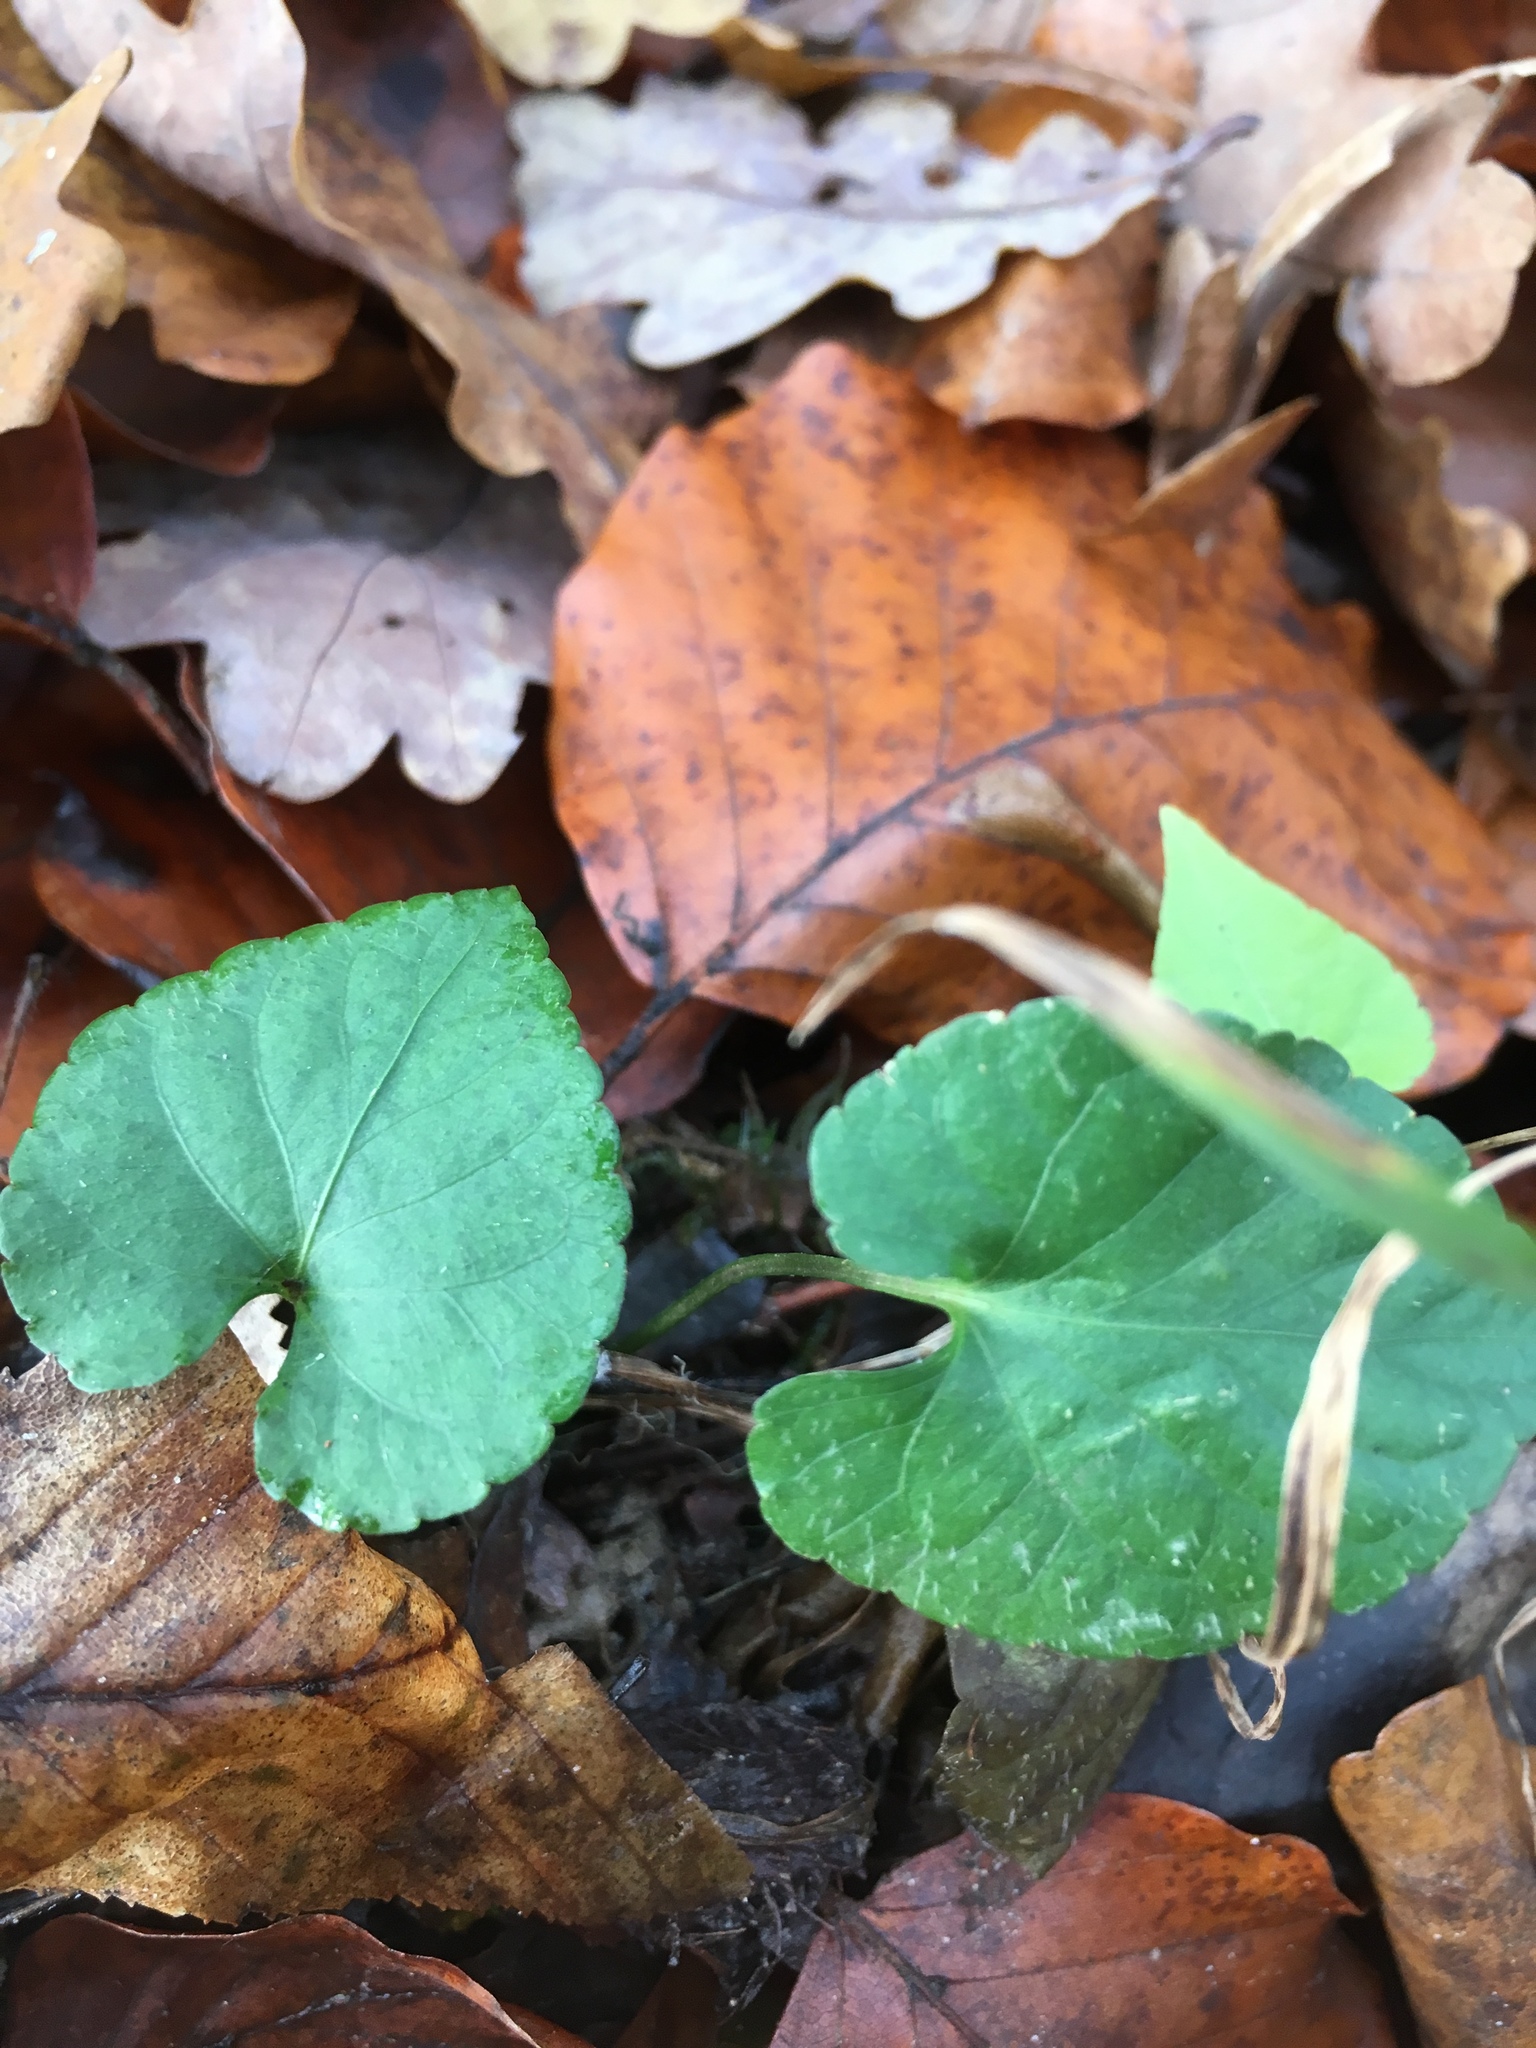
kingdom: Plantae
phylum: Tracheophyta
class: Magnoliopsida
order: Malpighiales
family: Violaceae
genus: Viola
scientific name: Viola odorata
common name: Sweet violet
